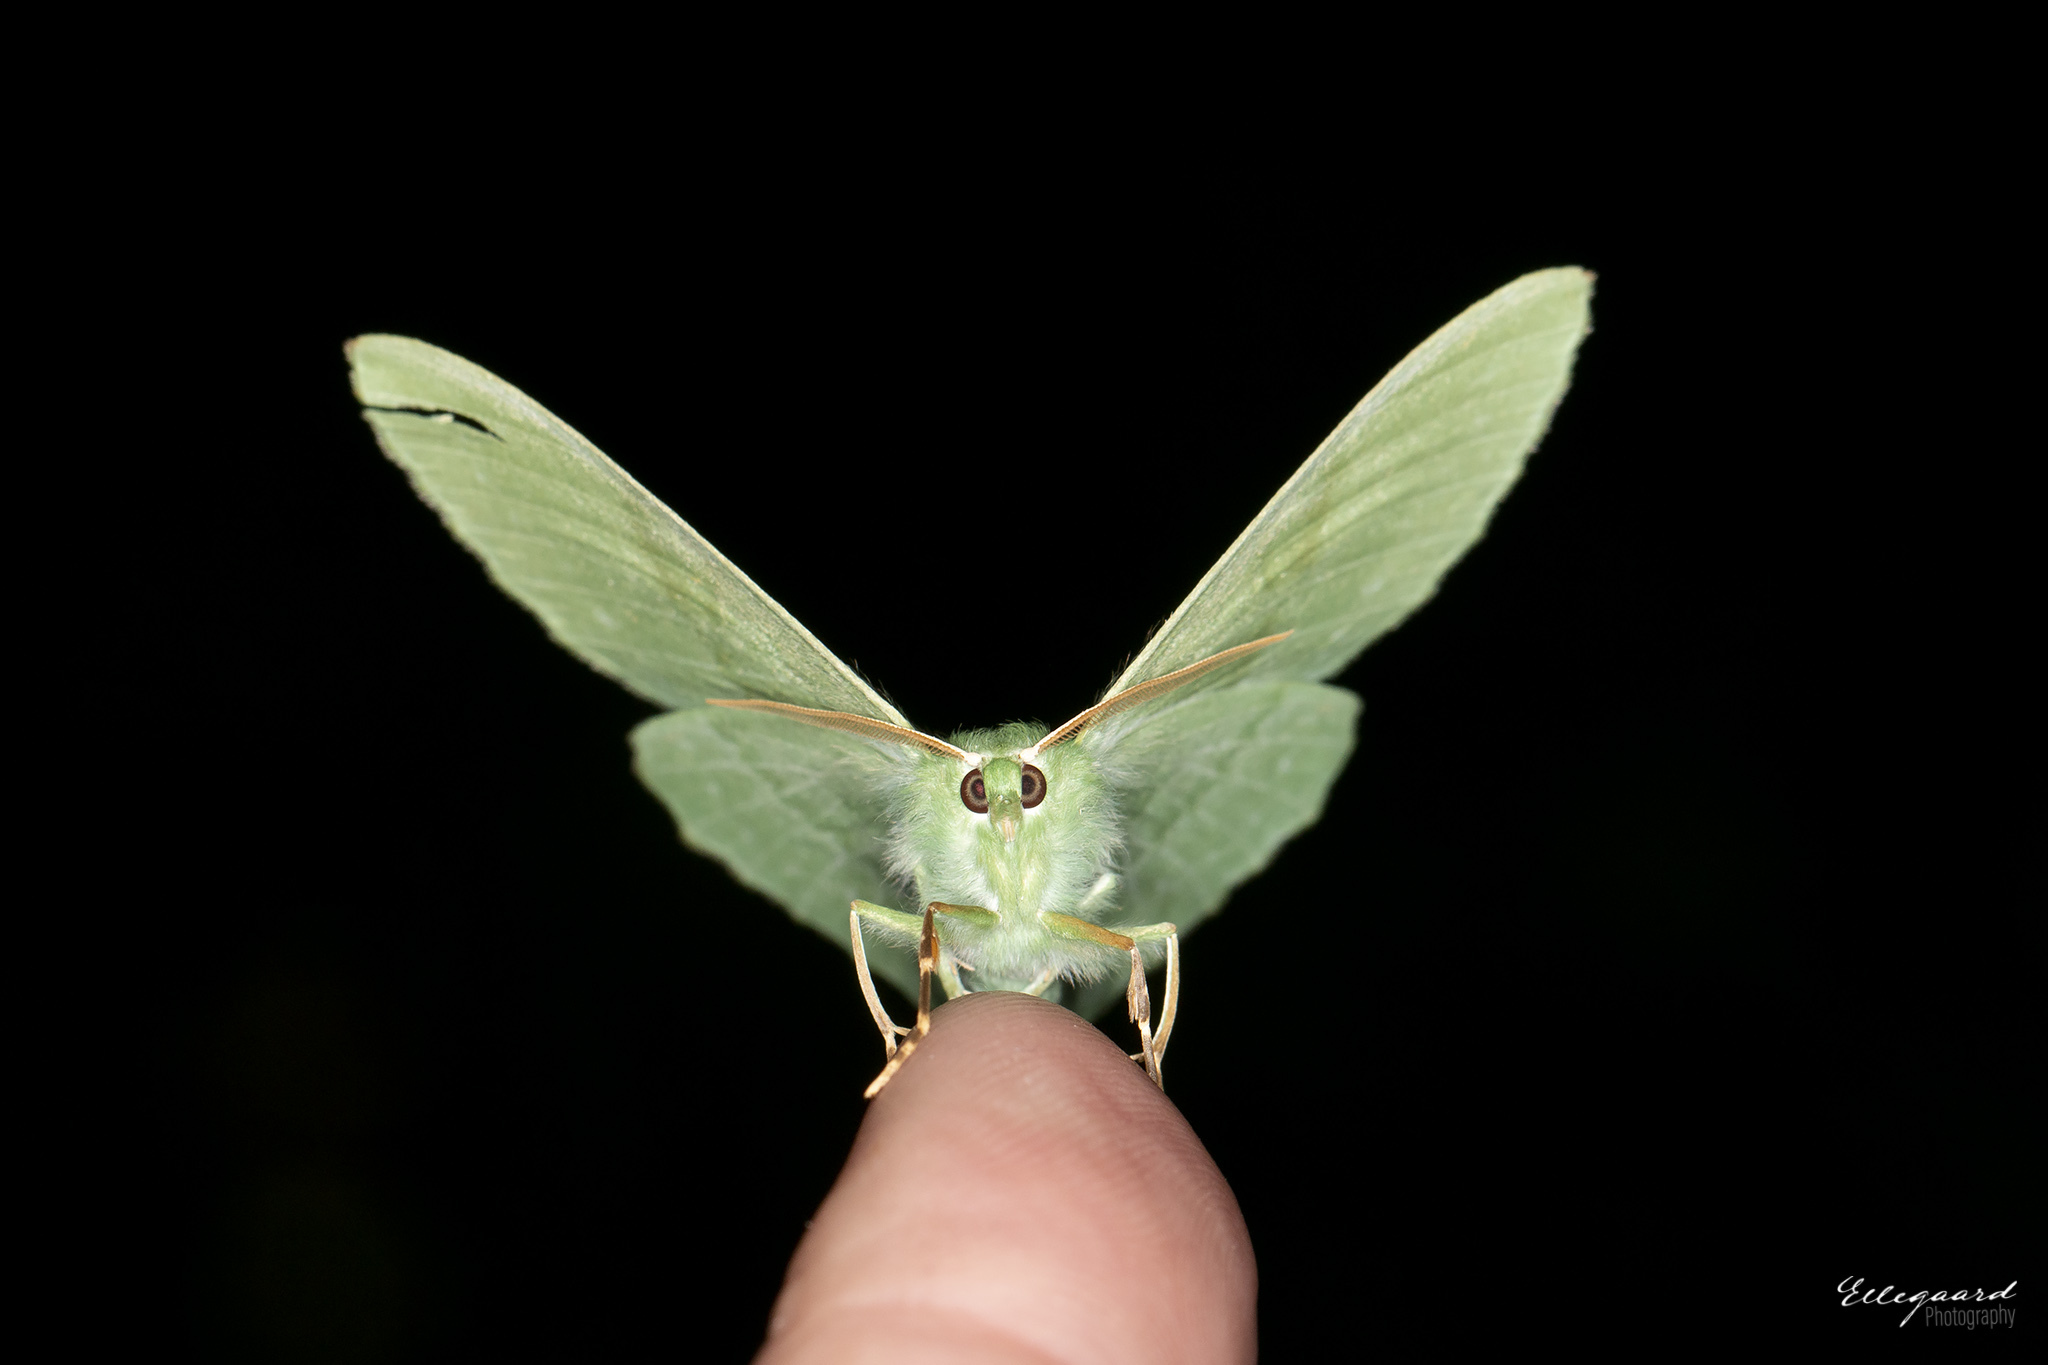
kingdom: Animalia
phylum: Arthropoda
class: Insecta
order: Lepidoptera
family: Geometridae
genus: Geometra
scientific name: Geometra papilionaria
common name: Large emerald
